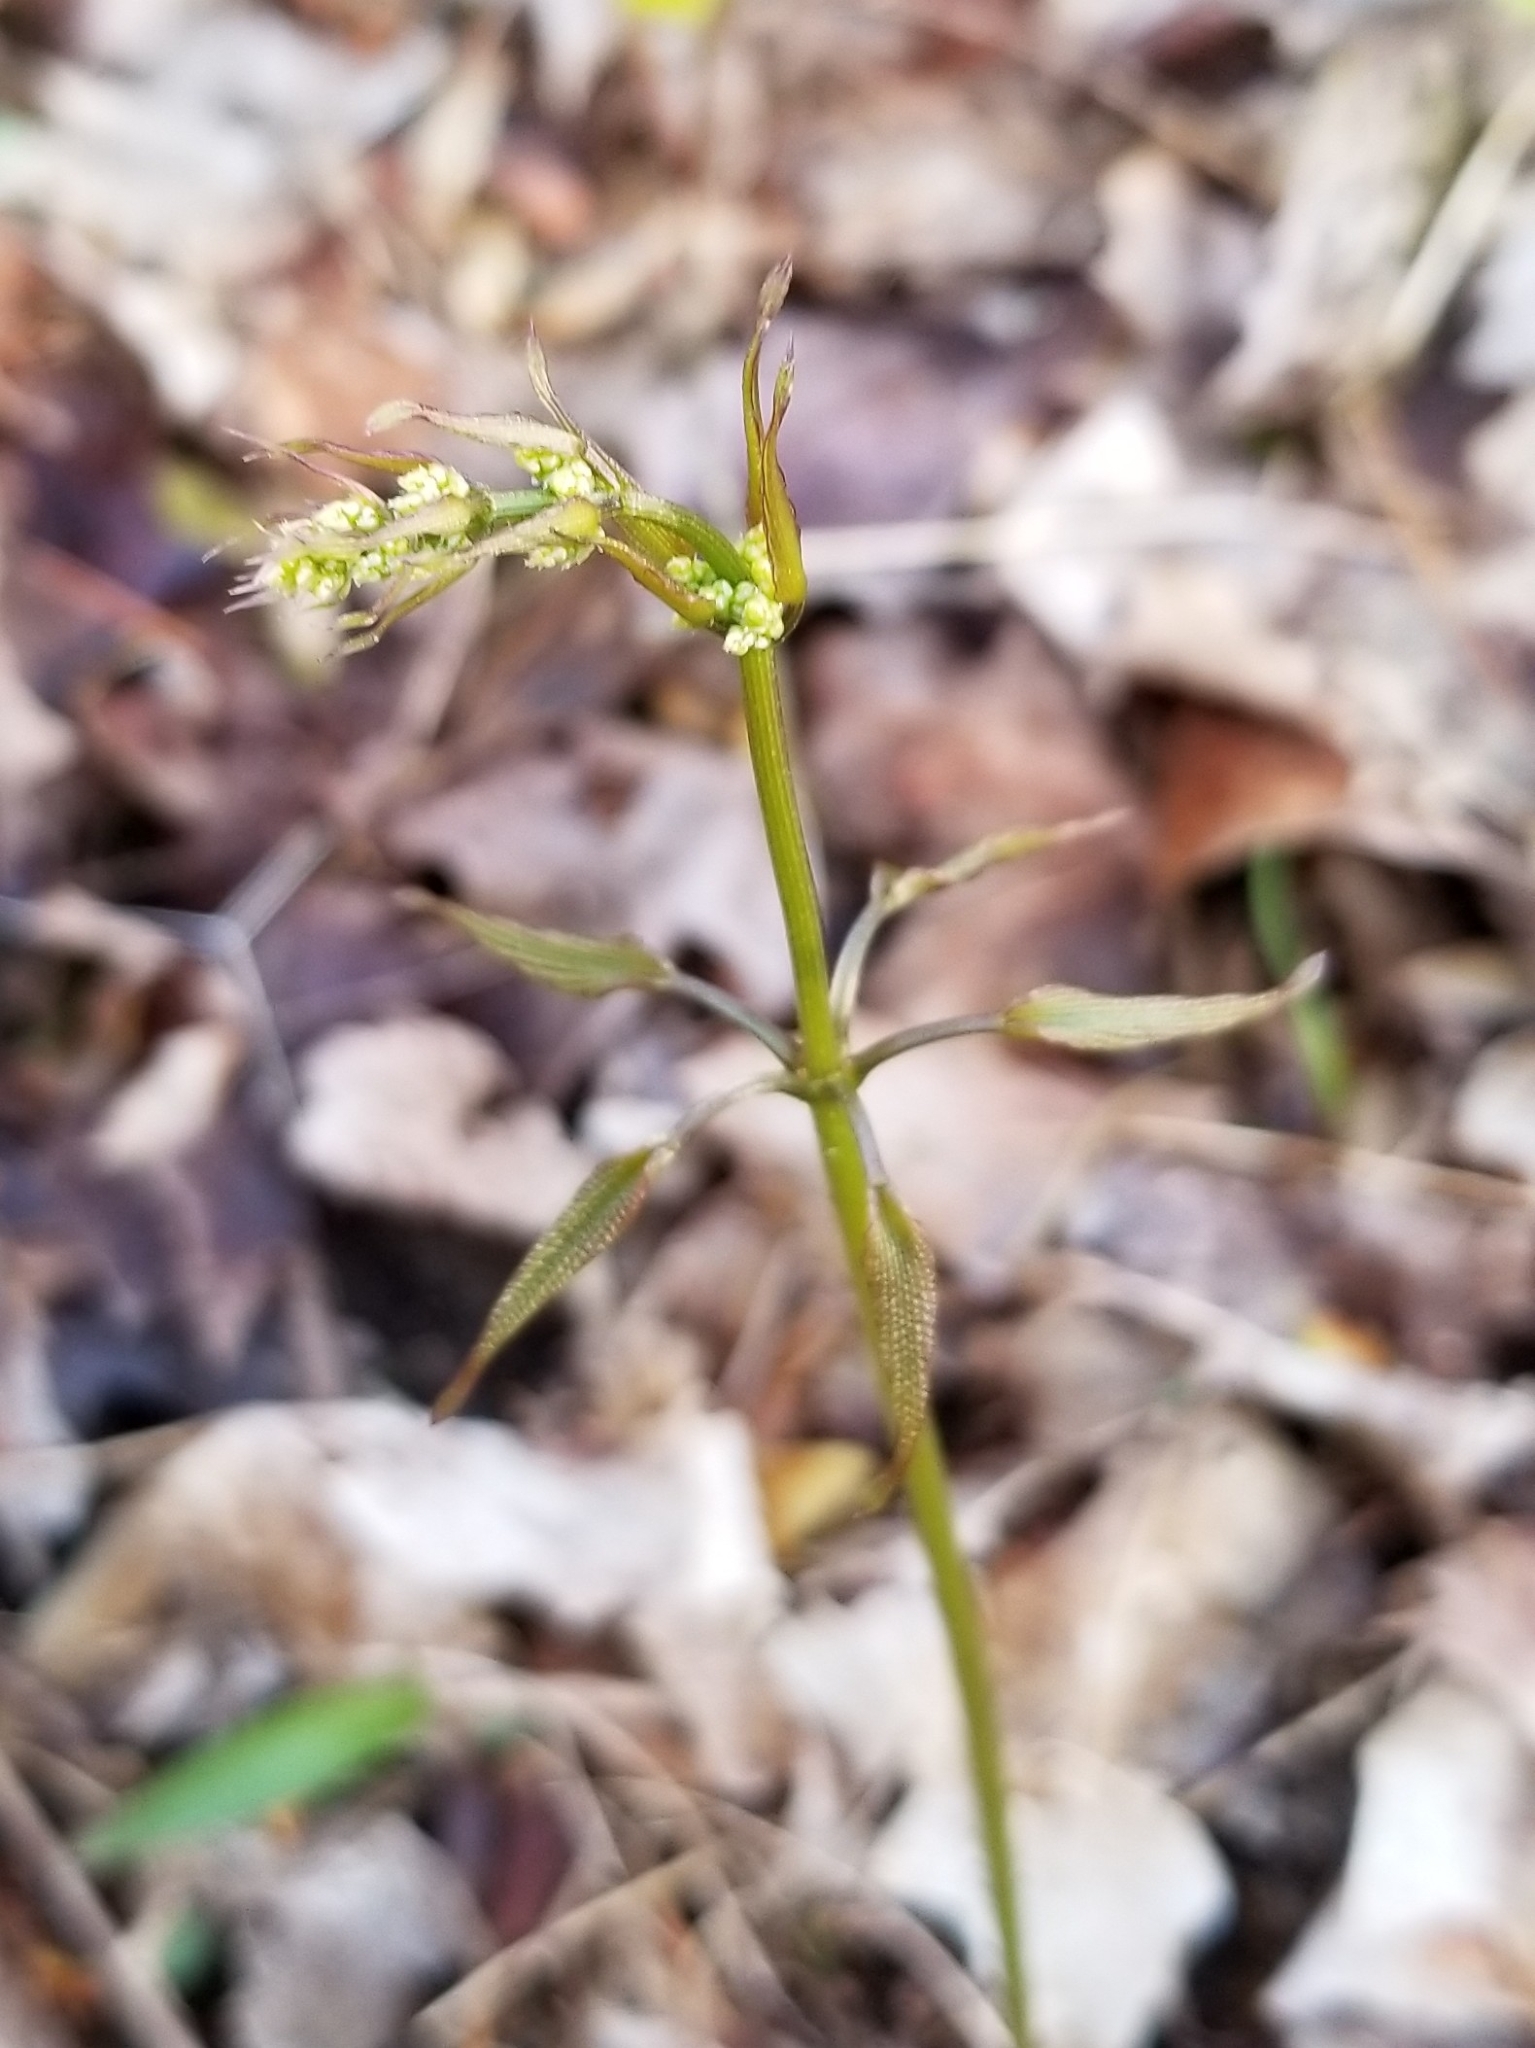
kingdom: Plantae
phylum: Tracheophyta
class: Liliopsida
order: Dioscoreales
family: Dioscoreaceae
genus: Dioscorea
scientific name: Dioscorea villosa
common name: Wild yam
